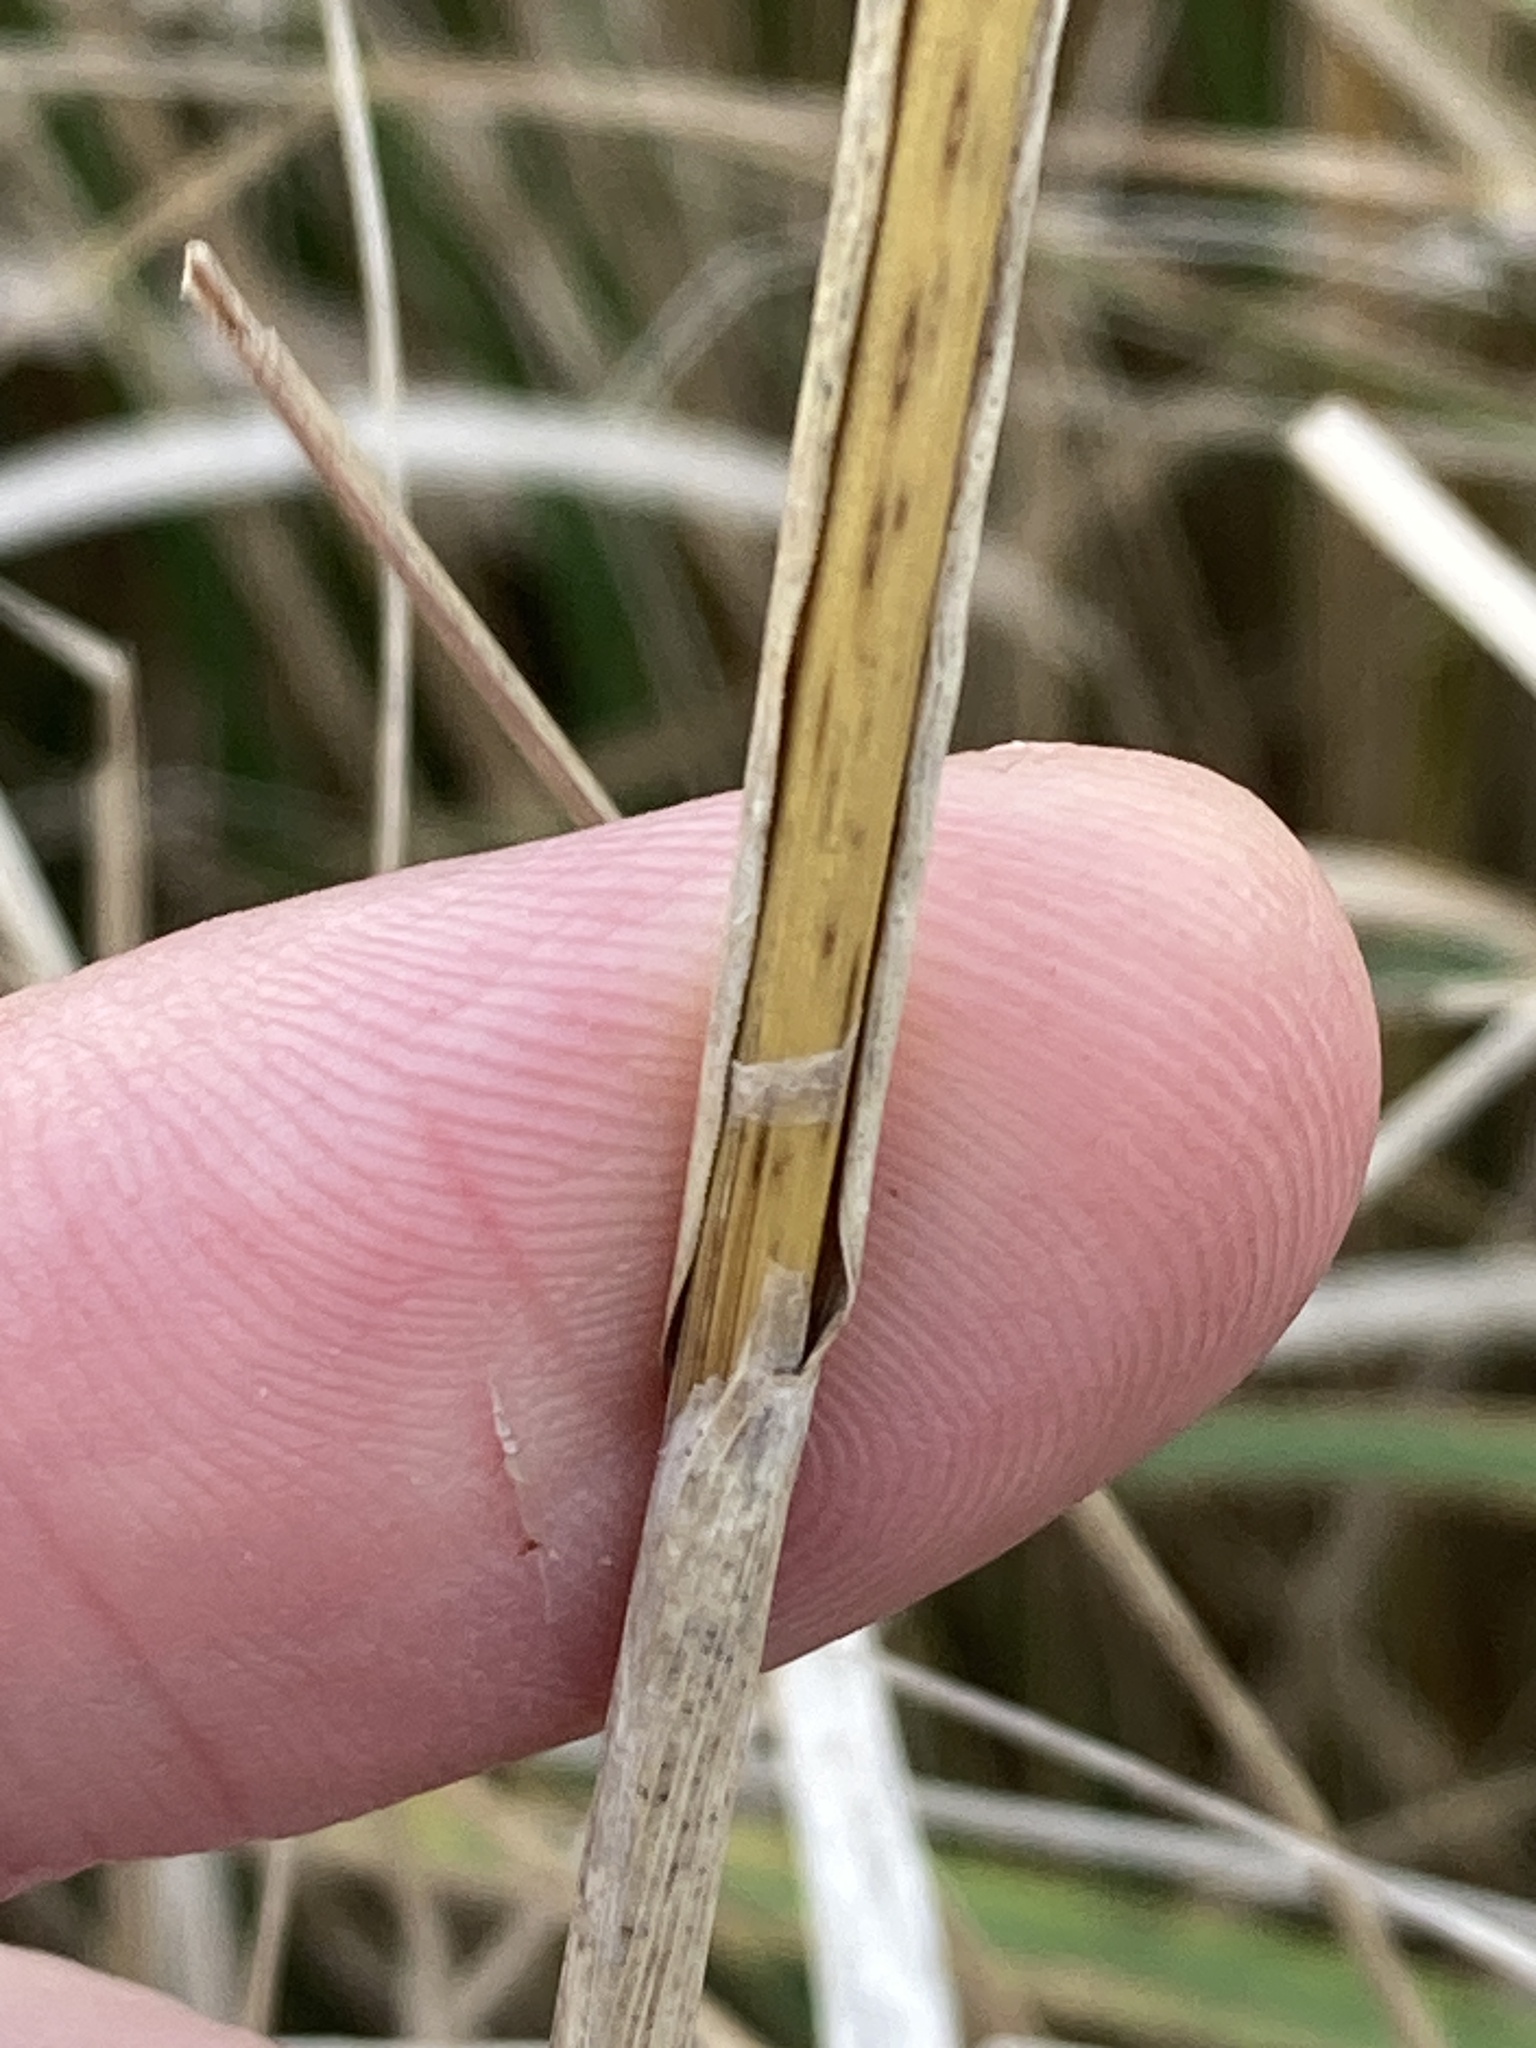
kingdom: Plantae
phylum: Tracheophyta
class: Liliopsida
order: Poales
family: Poaceae
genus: Calamagrostis
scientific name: Calamagrostis epigejos
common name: Wood small-reed
